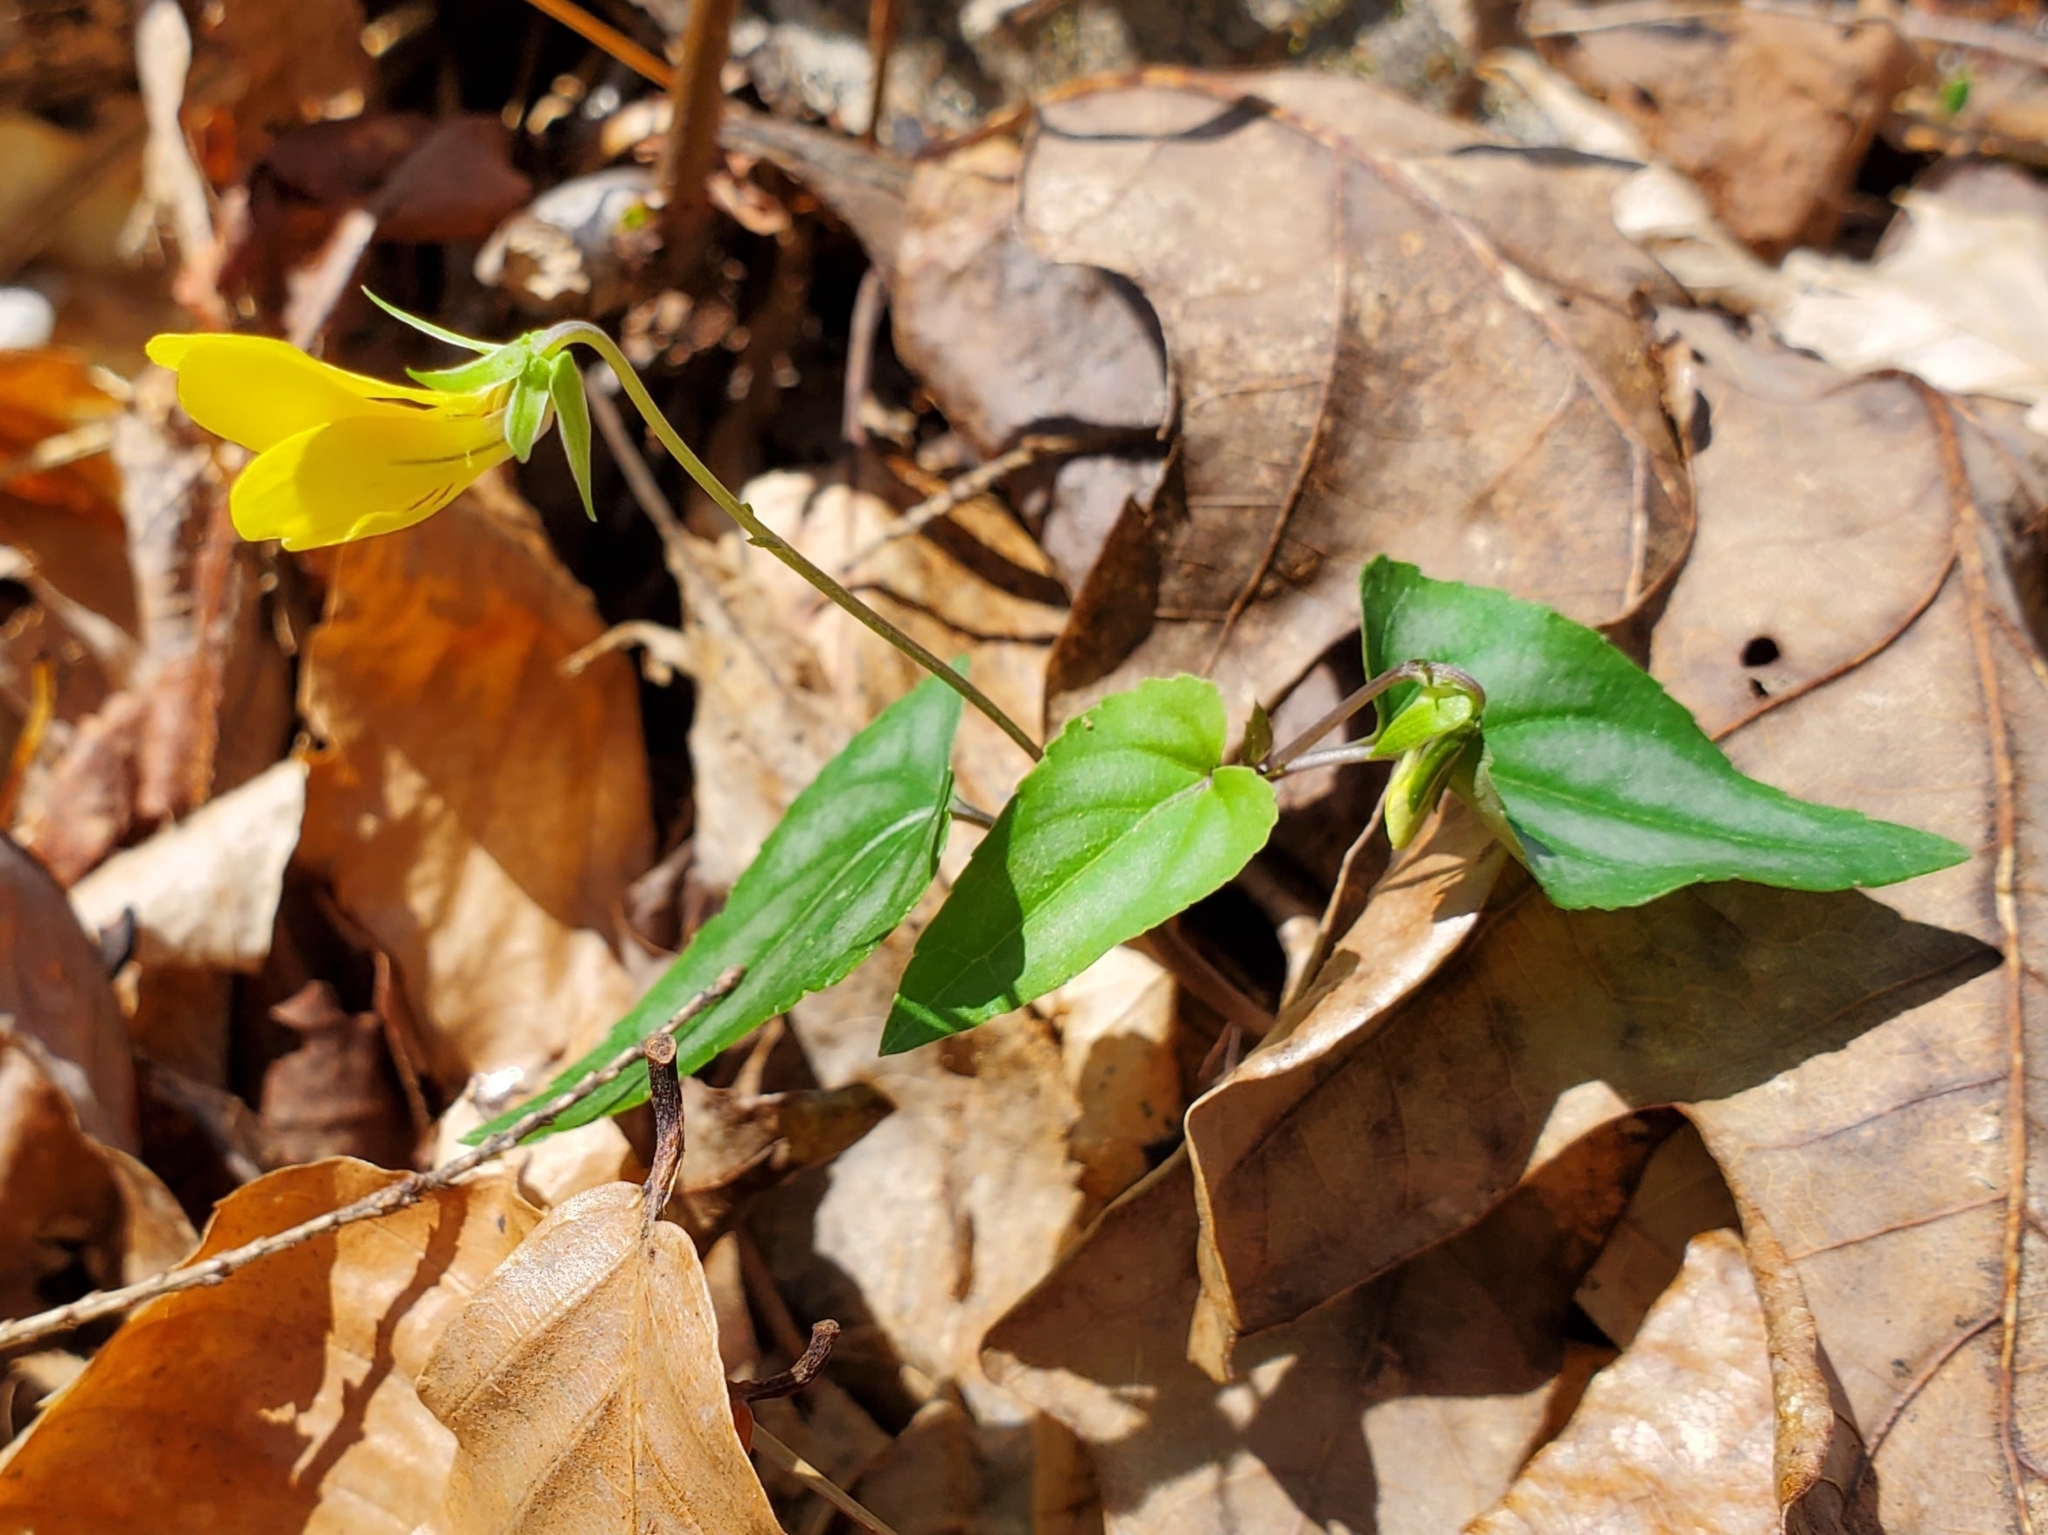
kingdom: Plantae
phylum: Tracheophyta
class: Magnoliopsida
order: Malpighiales
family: Violaceae
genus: Viola
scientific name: Viola hastata
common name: Spear-leaf violet
